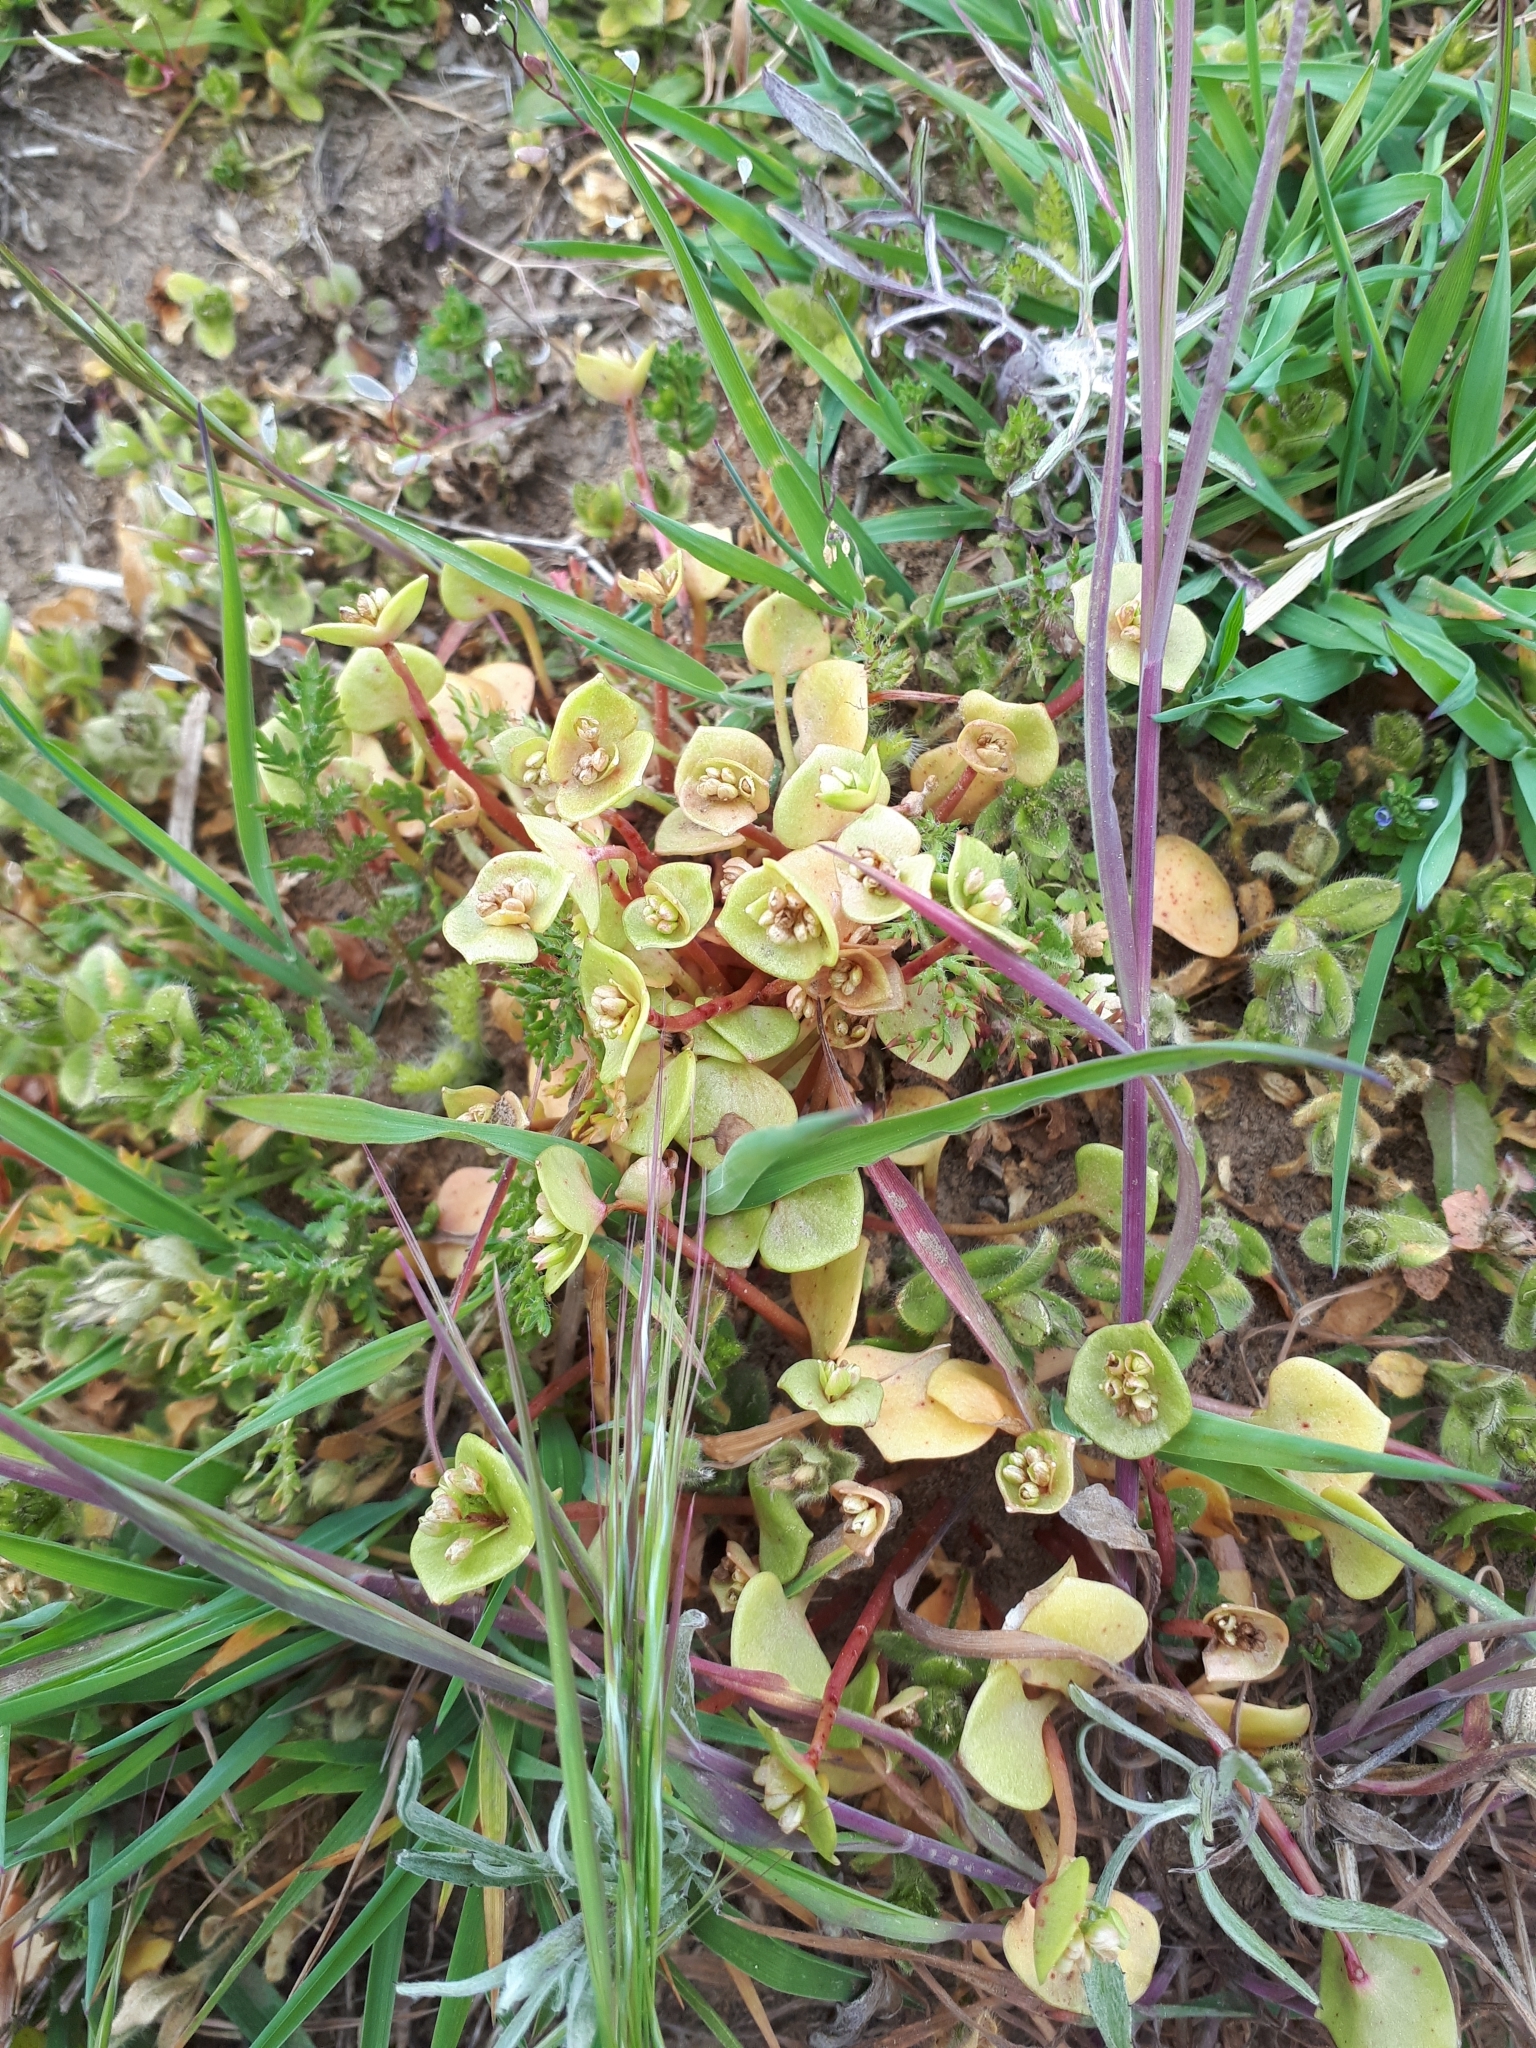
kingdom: Plantae
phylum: Tracheophyta
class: Magnoliopsida
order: Caryophyllales
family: Montiaceae
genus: Claytonia
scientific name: Claytonia perfoliata
